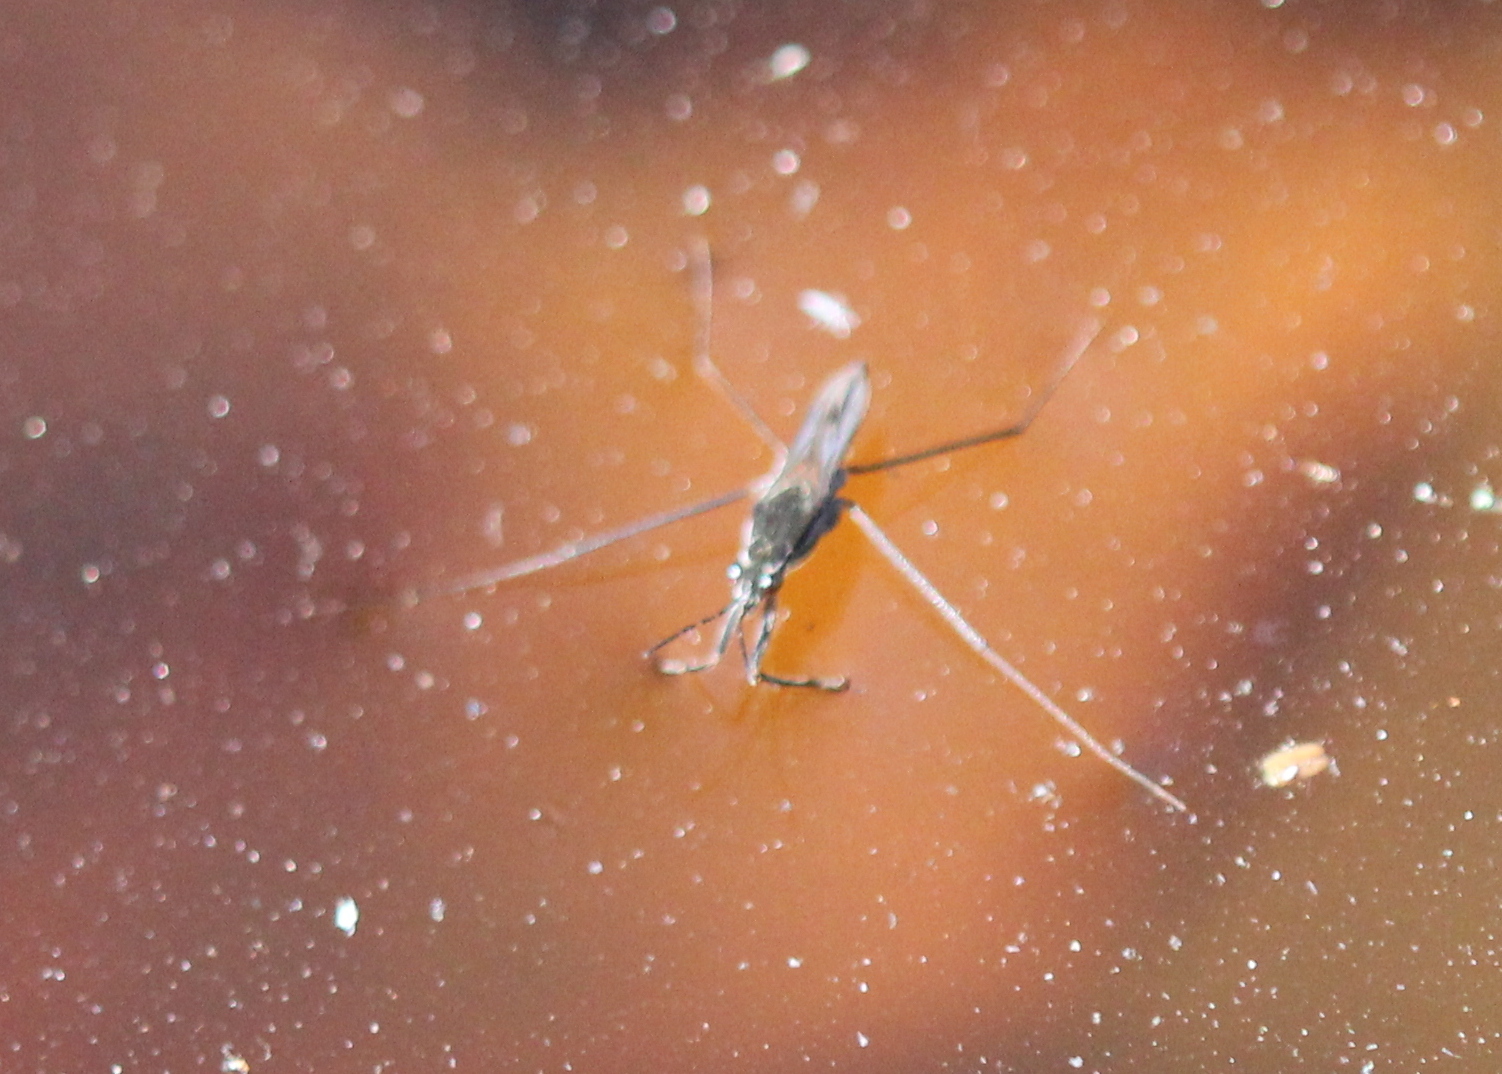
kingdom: Animalia
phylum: Arthropoda
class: Insecta
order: Hemiptera
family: Gerridae
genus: Gerris
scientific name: Gerris
